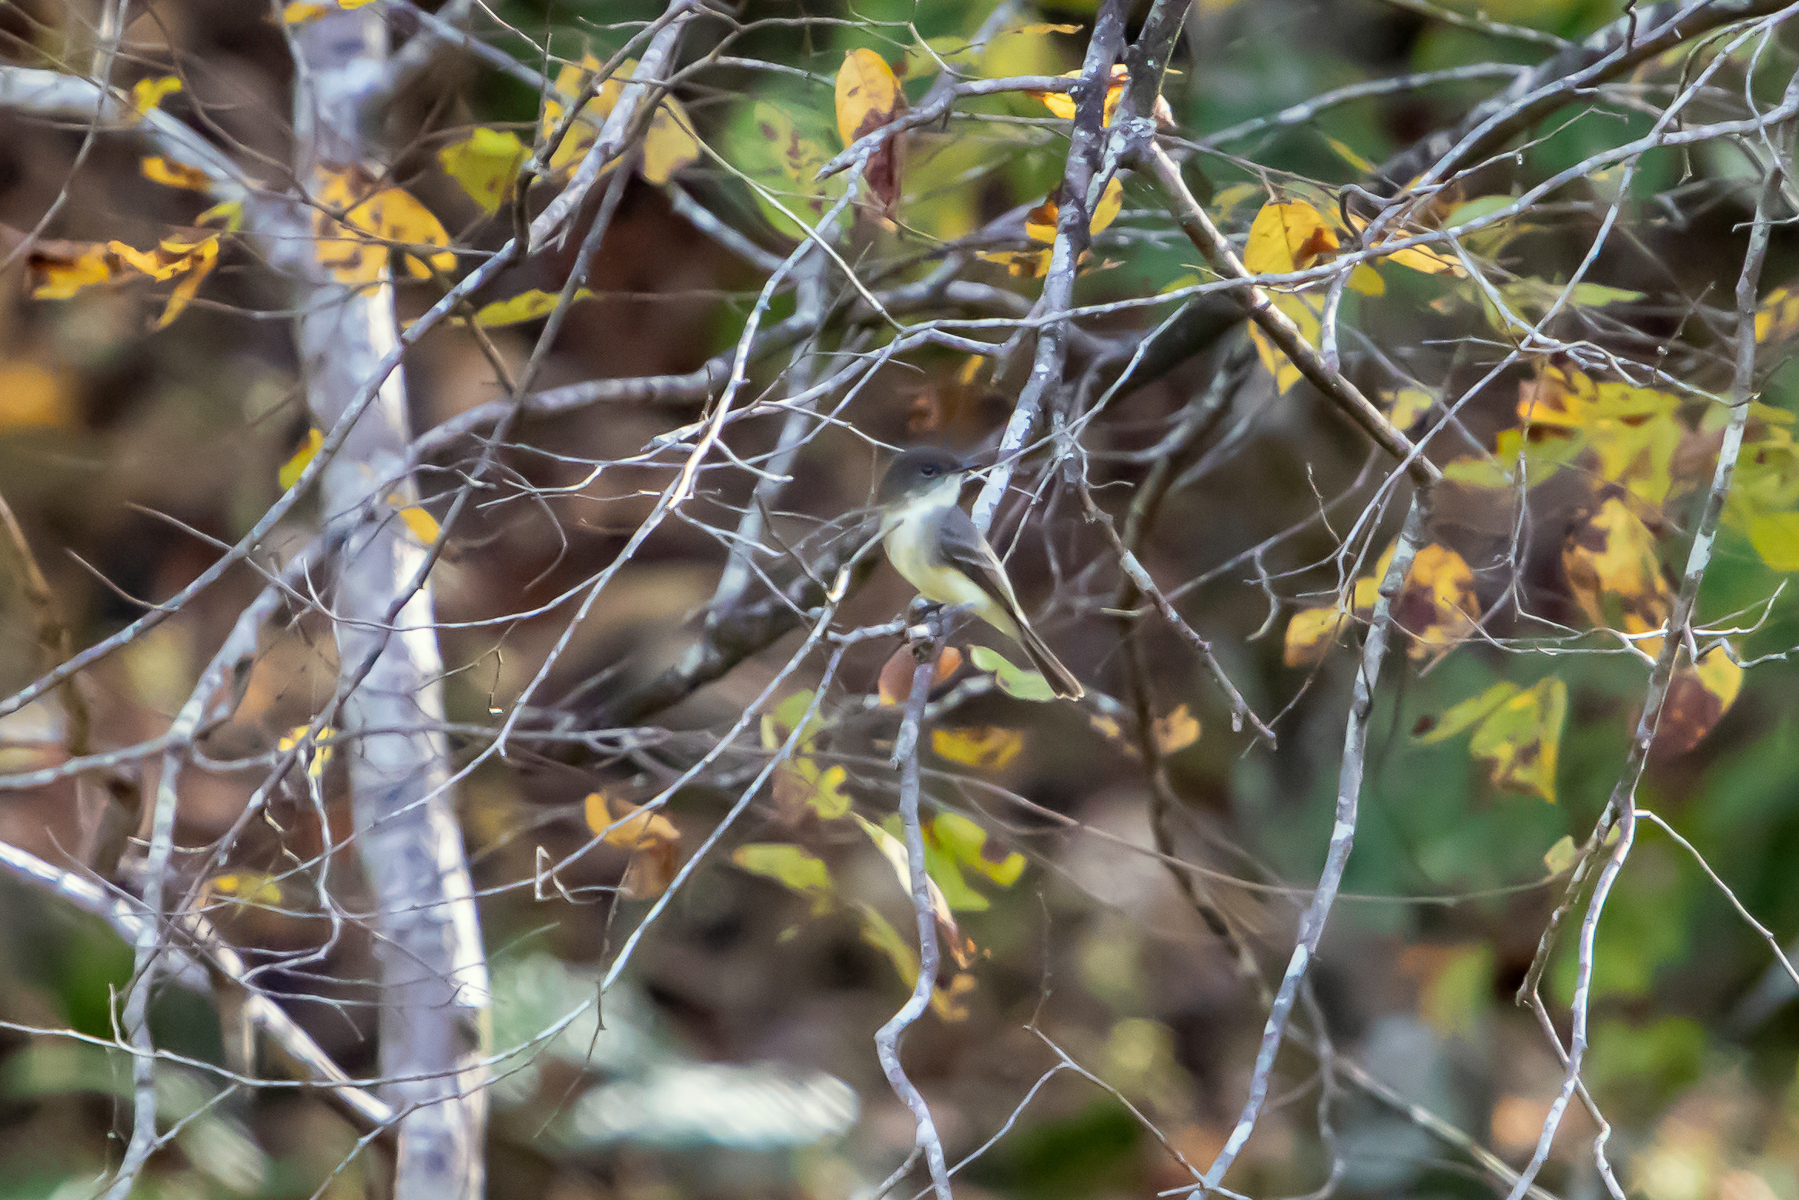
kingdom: Animalia
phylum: Chordata
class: Aves
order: Passeriformes
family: Tyrannidae
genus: Sayornis
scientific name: Sayornis phoebe
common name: Eastern phoebe
